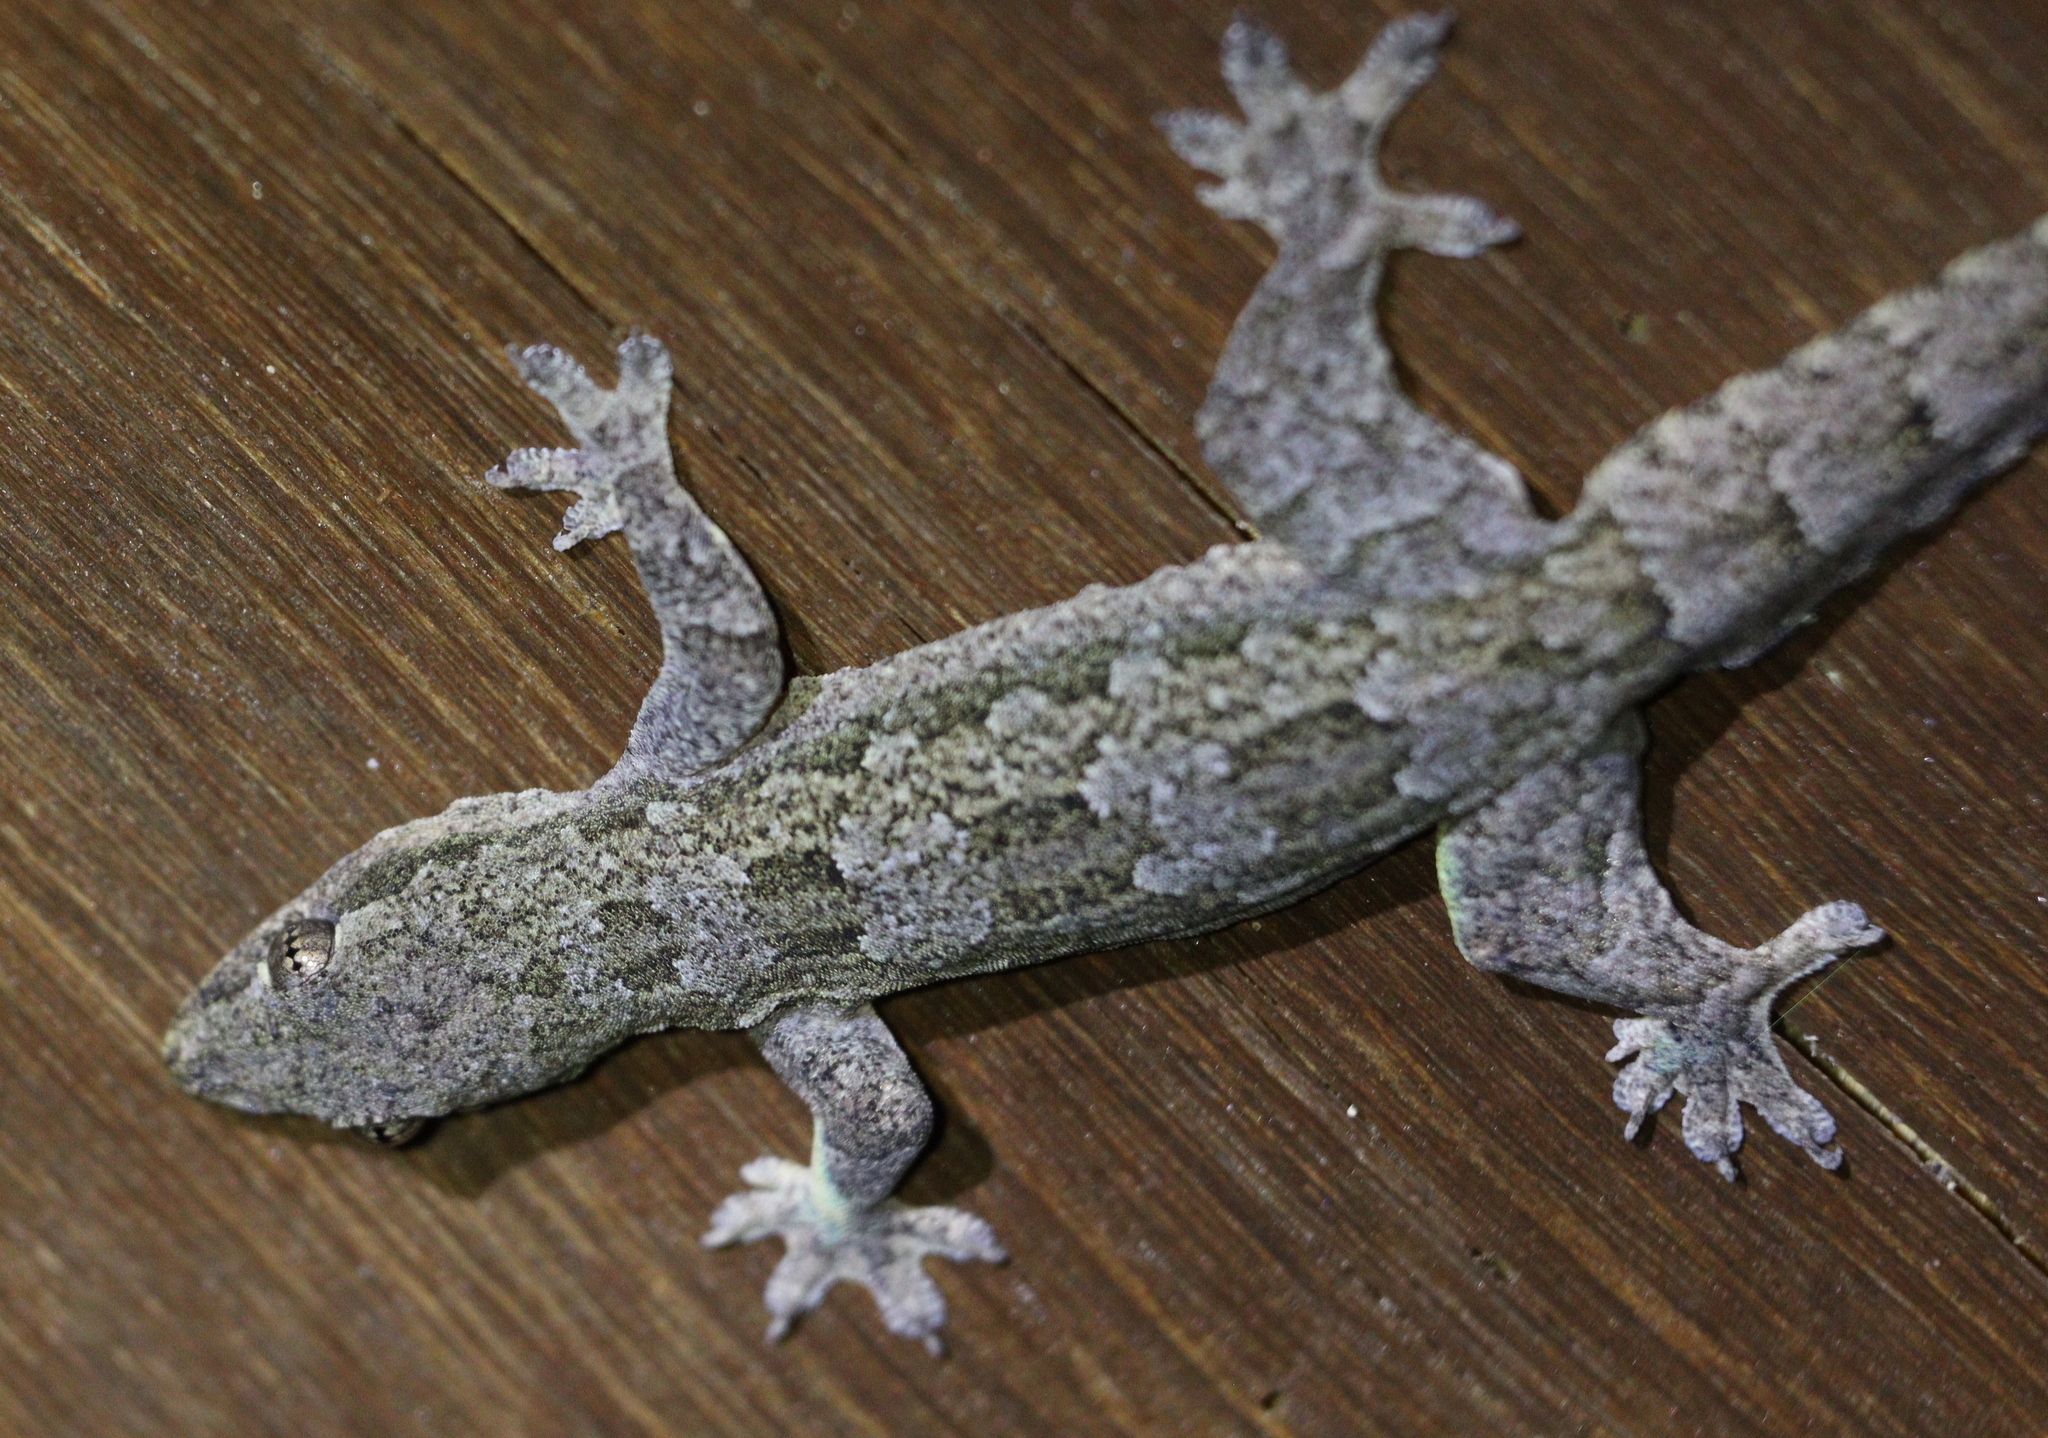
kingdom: Animalia
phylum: Chordata
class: Squamata
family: Gekkonidae
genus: Hemidactylus
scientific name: Hemidactylus platyurus
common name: Flat-tailed house gecko
